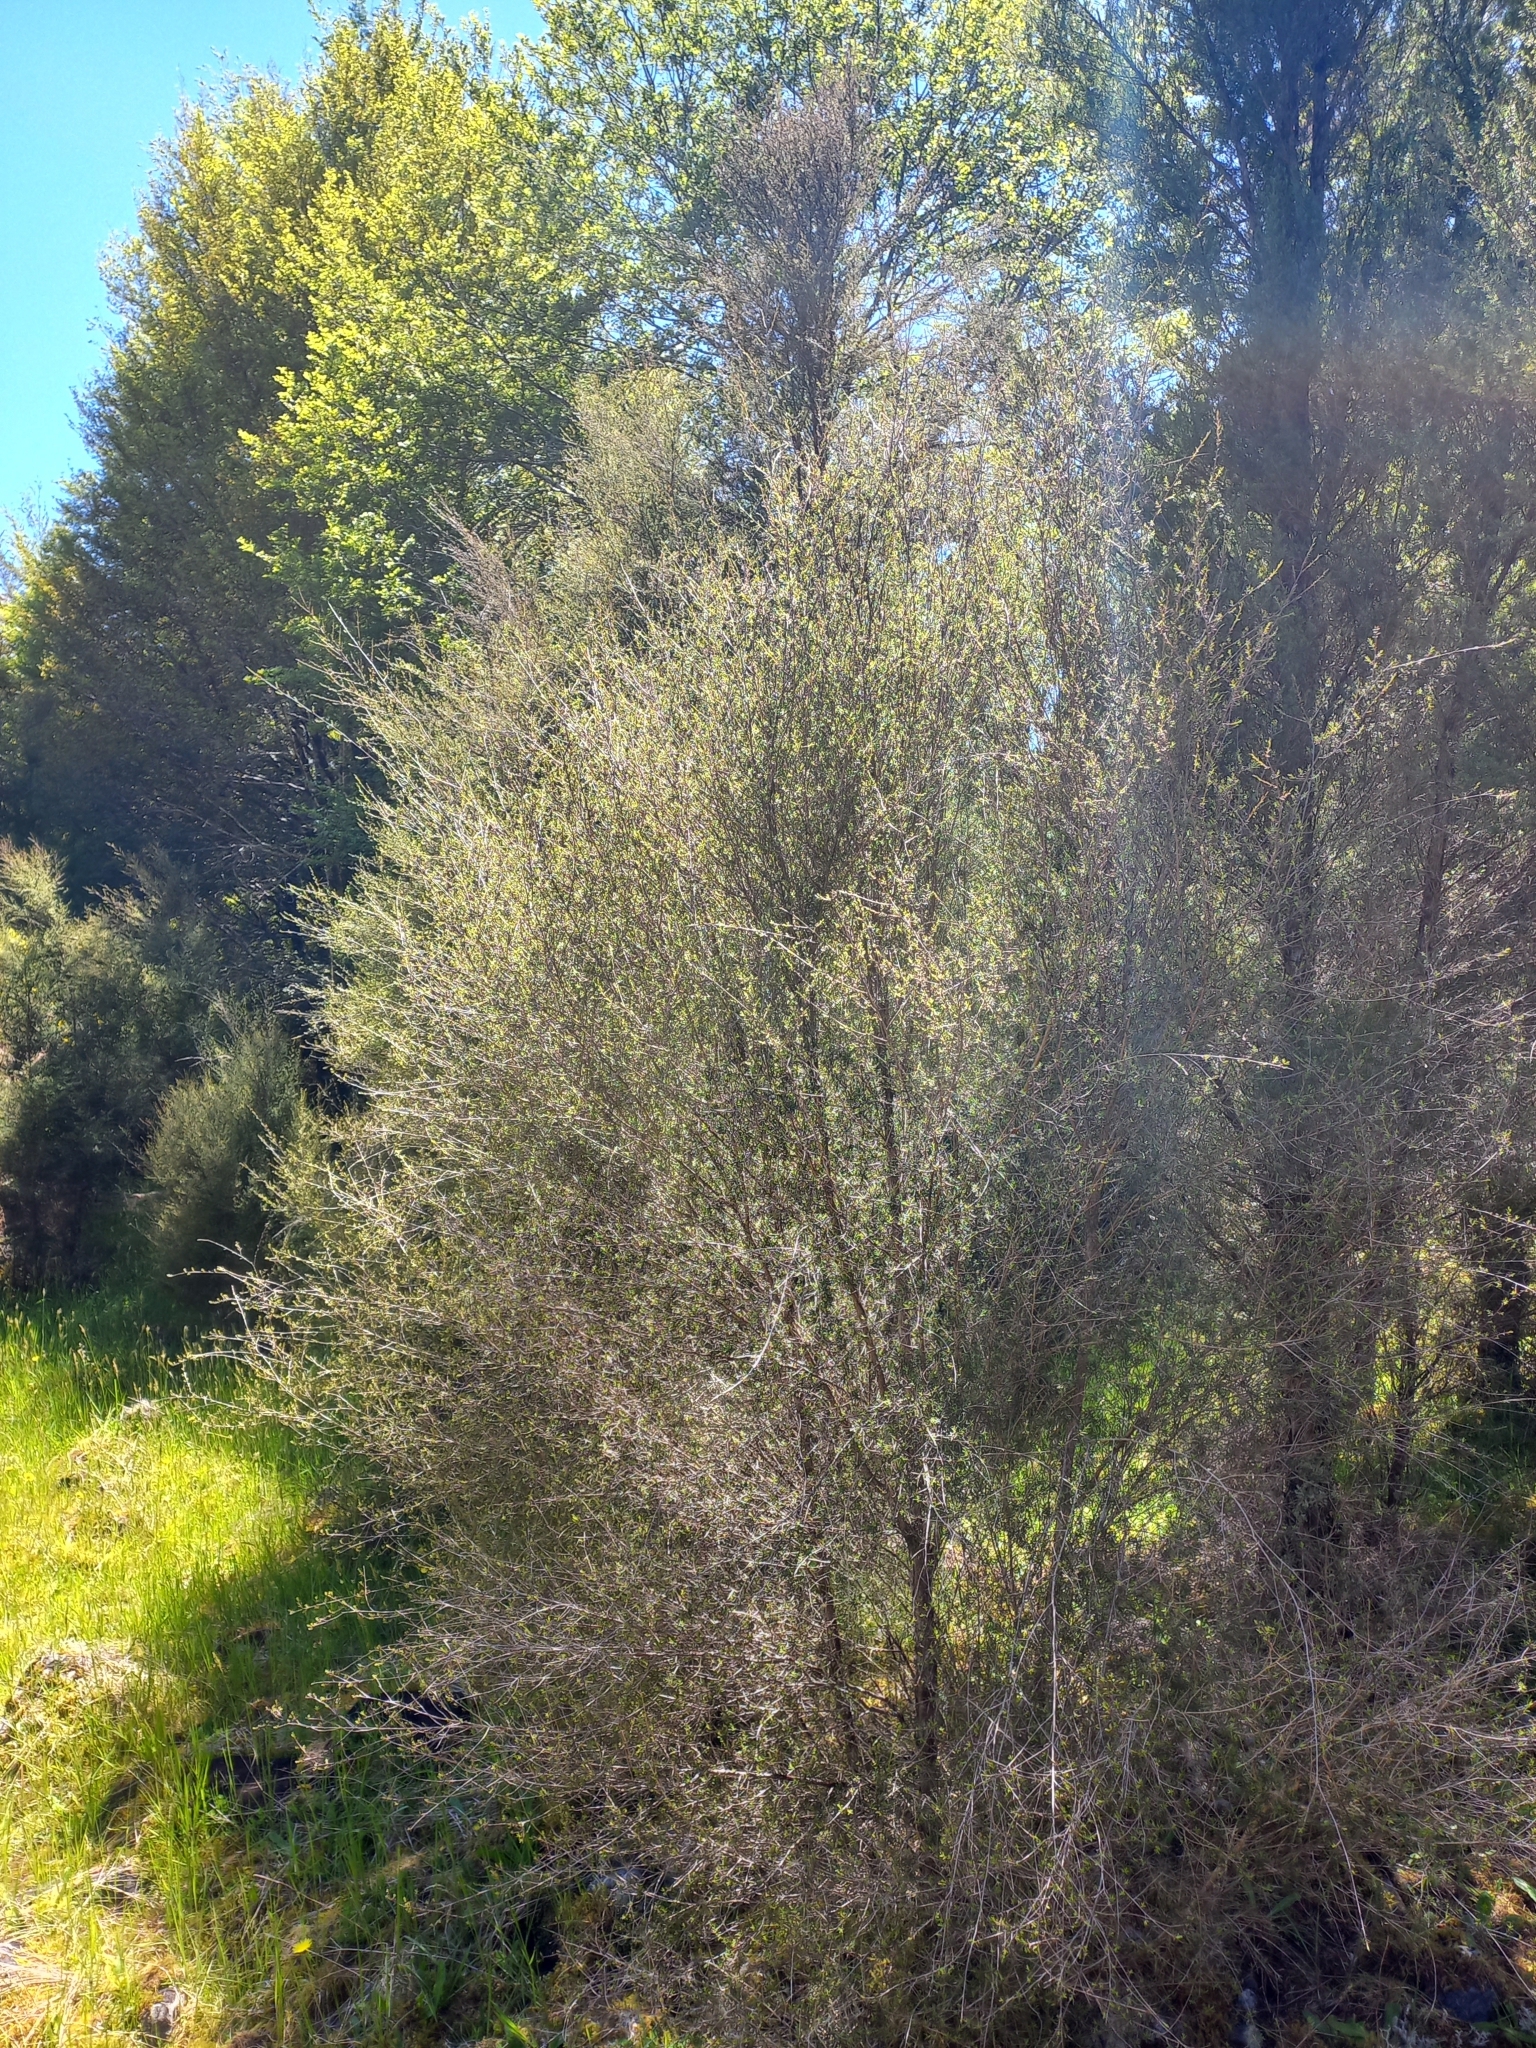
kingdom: Plantae
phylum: Tracheophyta
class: Magnoliopsida
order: Myrtales
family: Myrtaceae
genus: Kunzea
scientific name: Kunzea robusta
